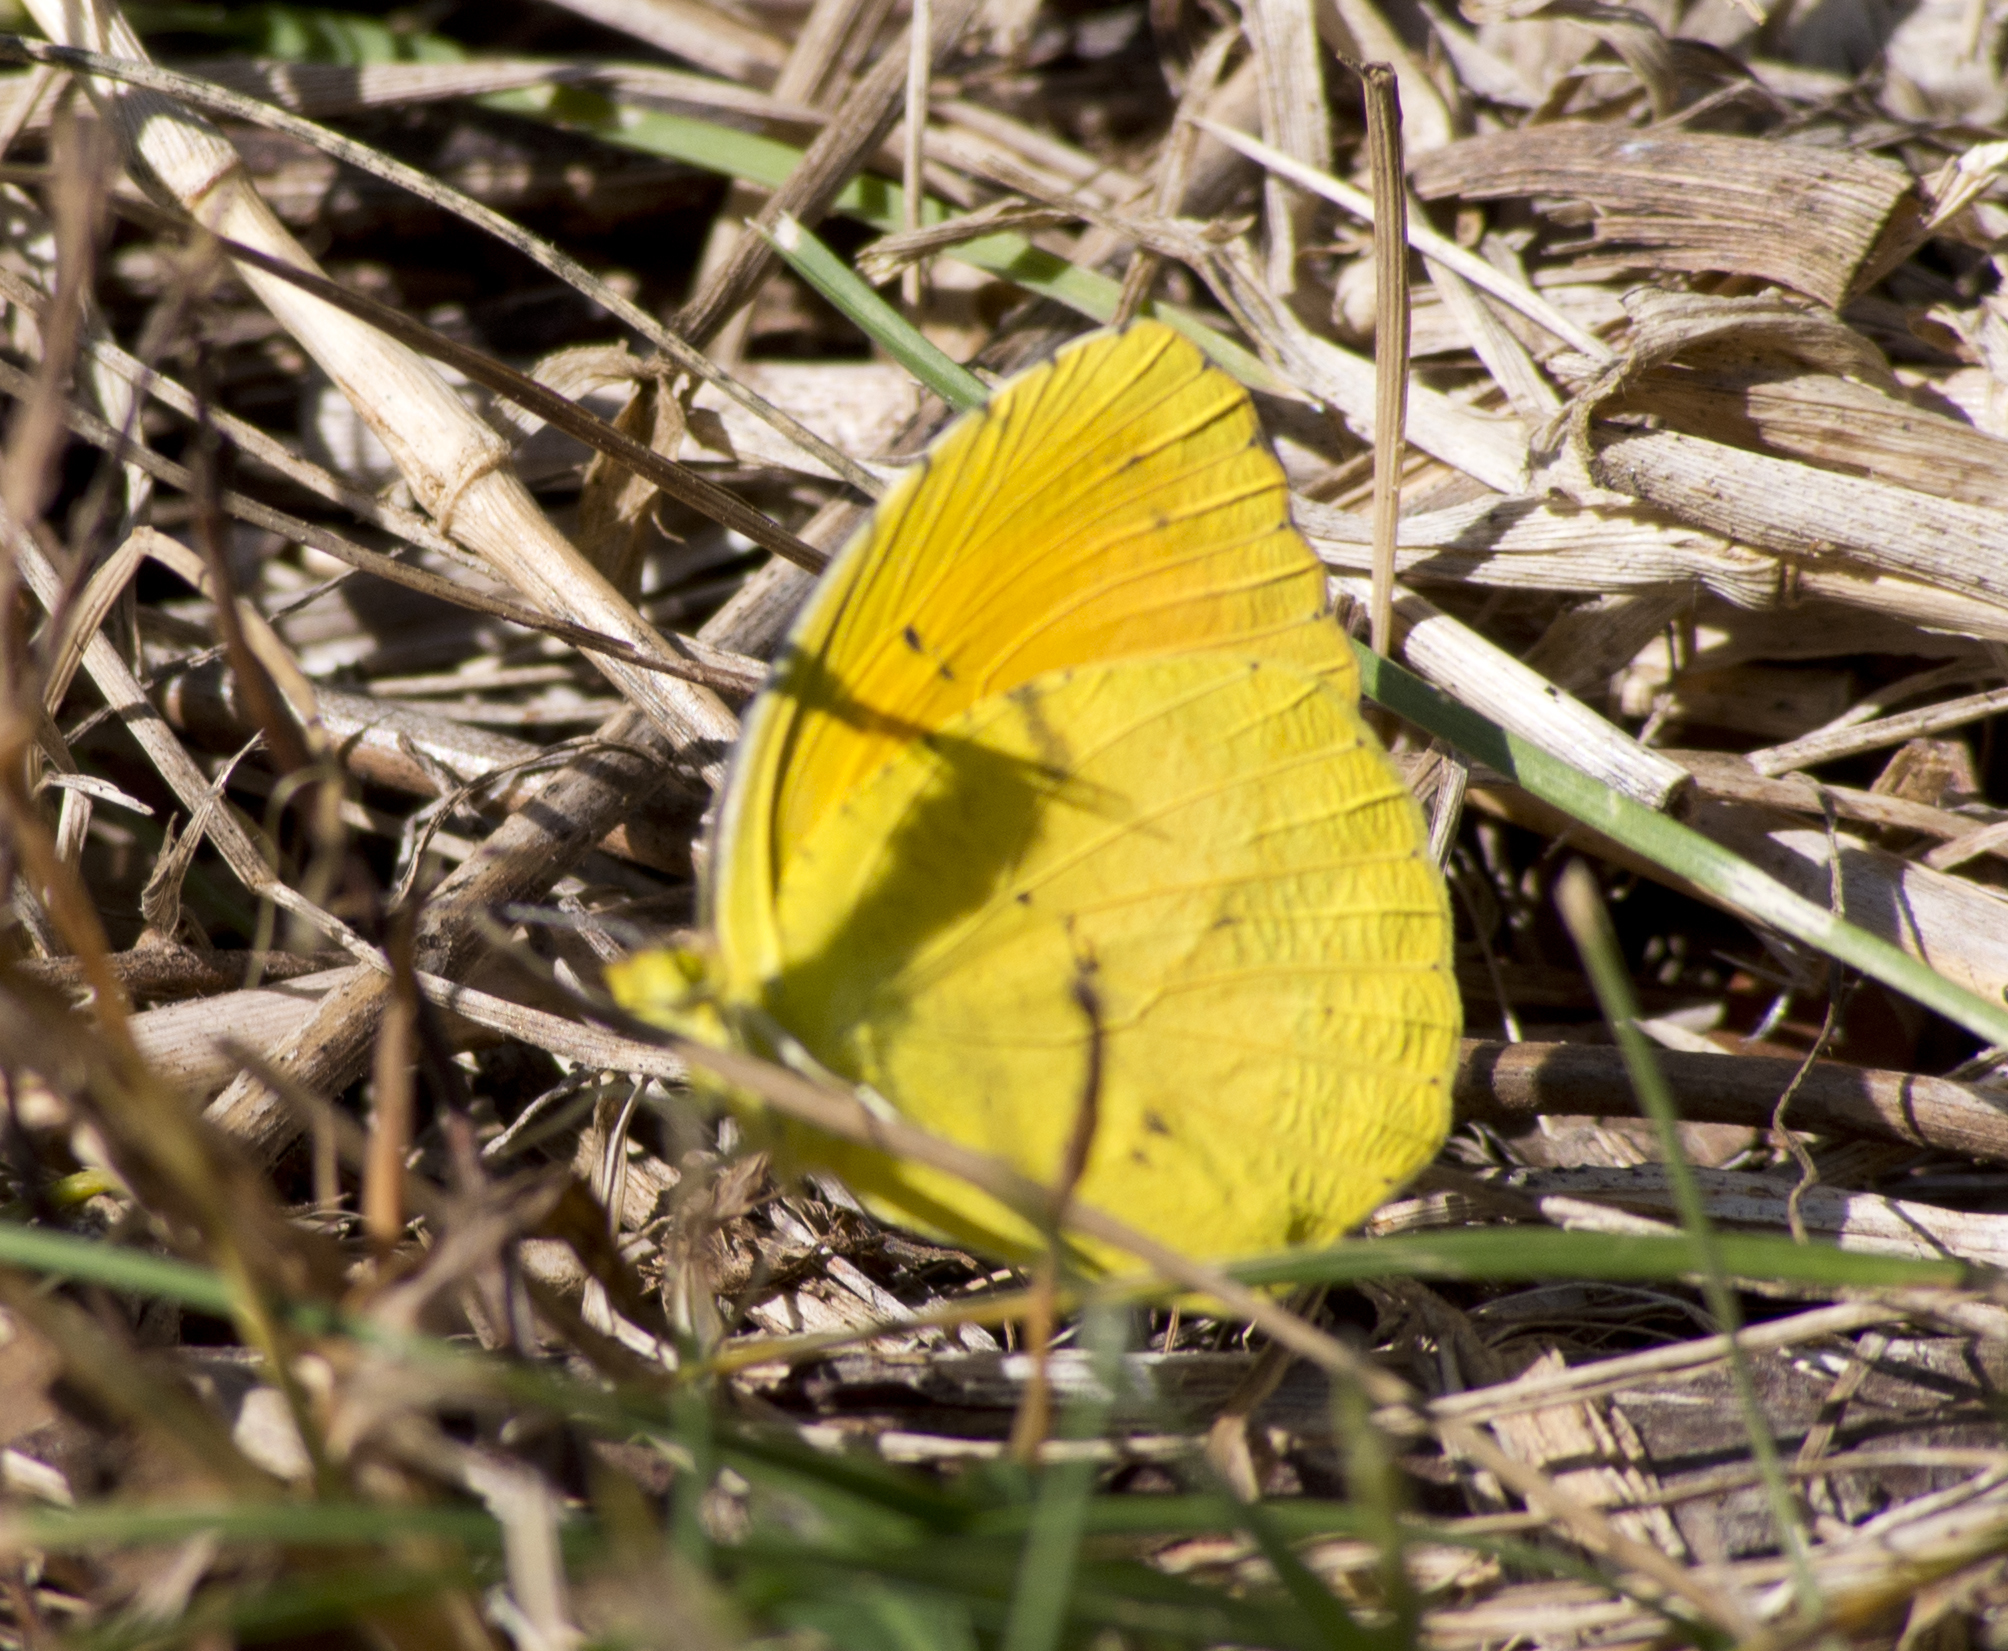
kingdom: Animalia
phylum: Arthropoda
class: Insecta
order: Lepidoptera
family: Pieridae
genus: Abaeis
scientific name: Abaeis nicippe
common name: Sleepy orange
